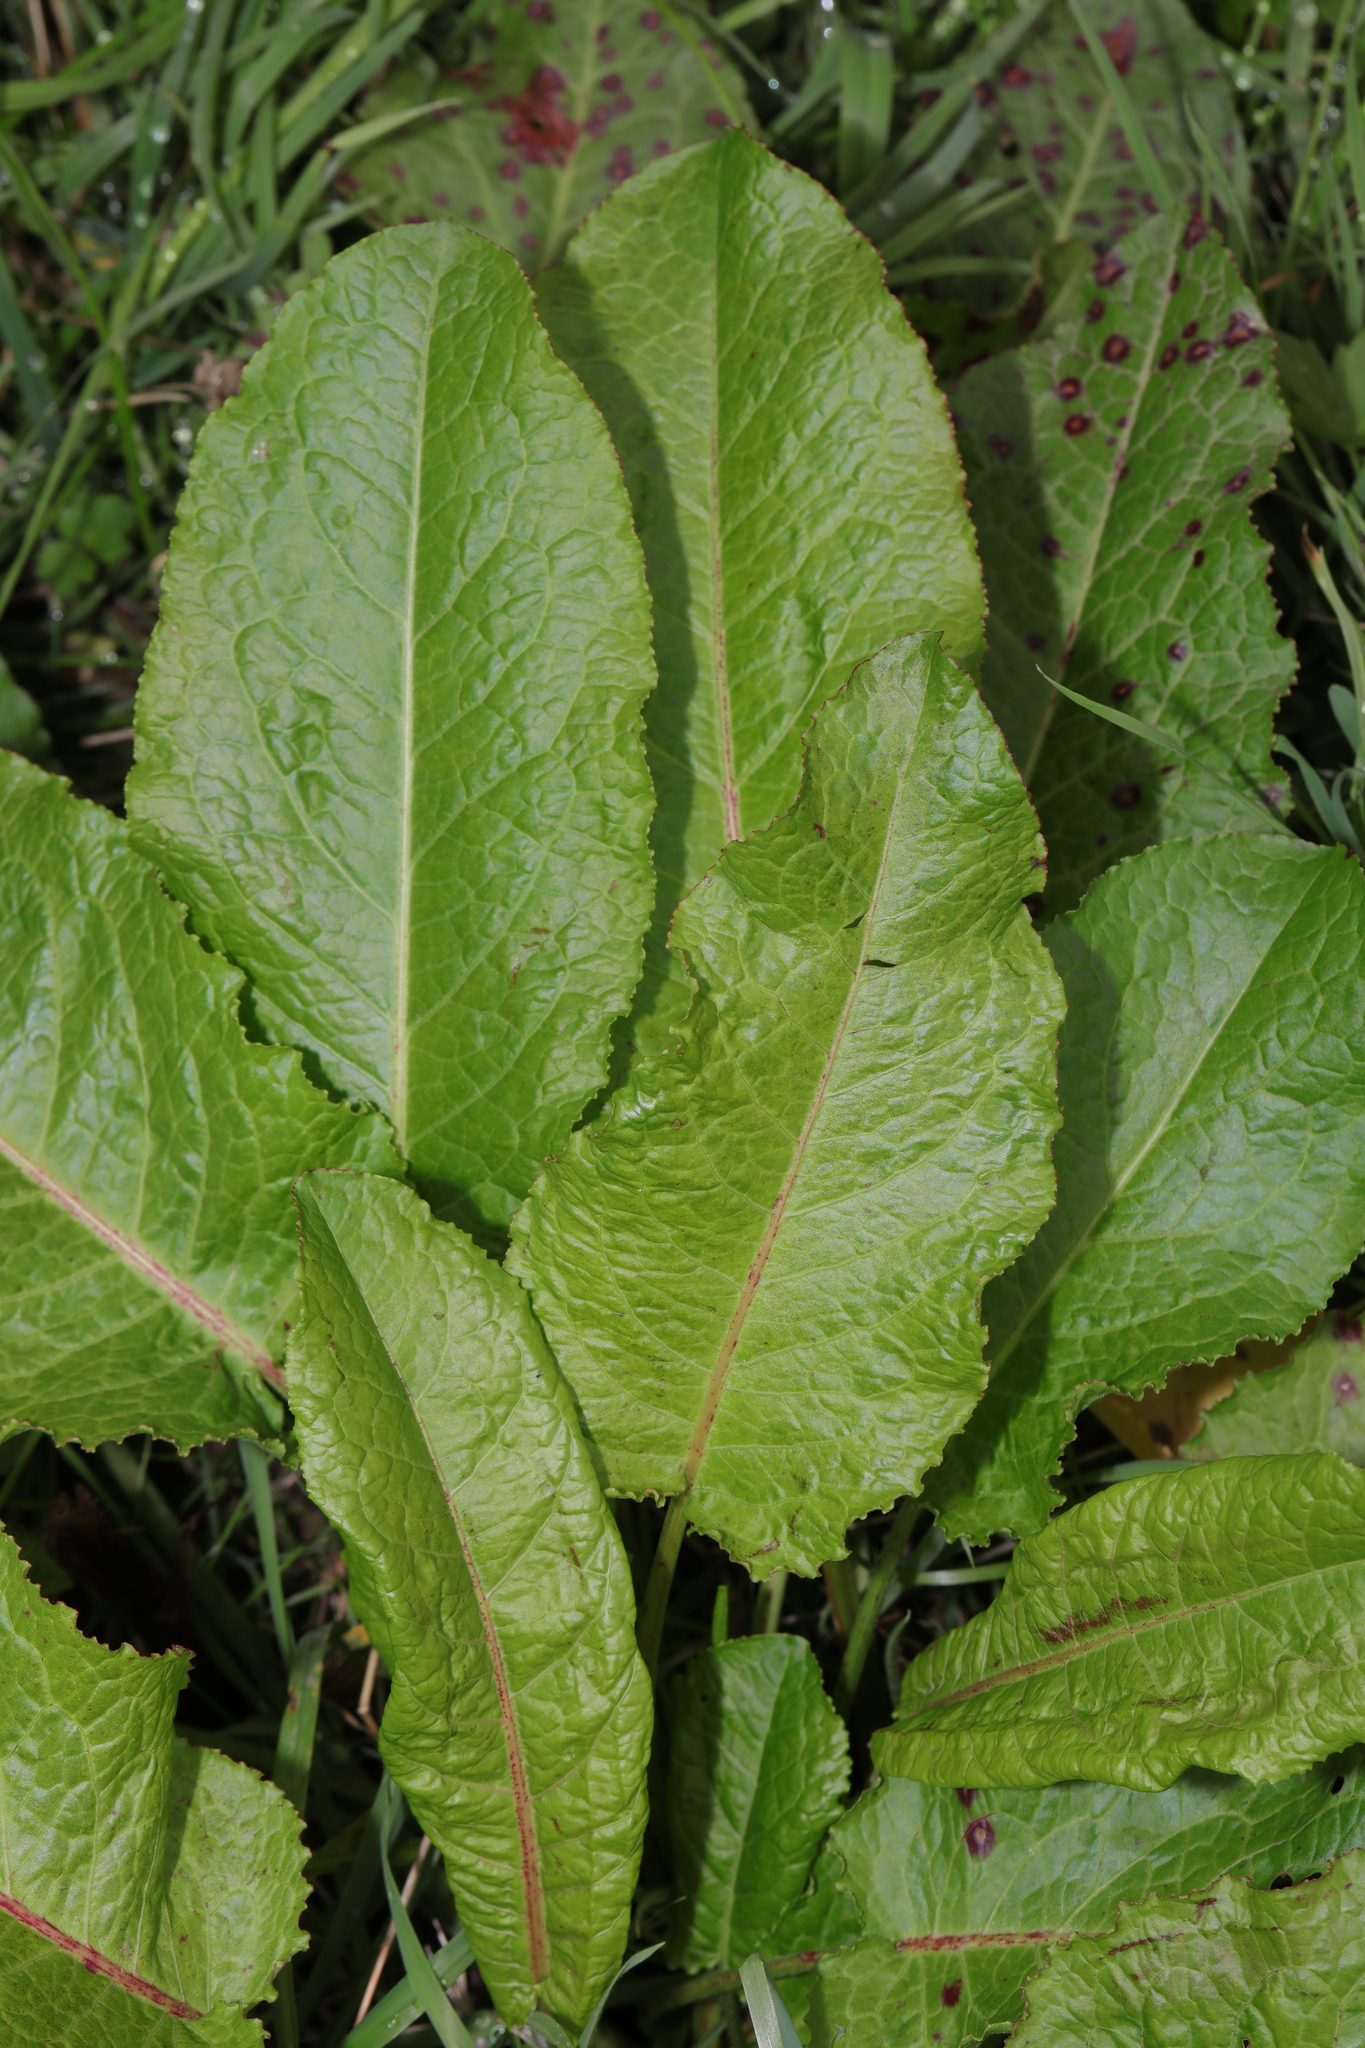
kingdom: Plantae
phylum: Tracheophyta
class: Magnoliopsida
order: Caryophyllales
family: Polygonaceae
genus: Rumex
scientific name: Rumex obtusifolius
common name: Bitter dock
